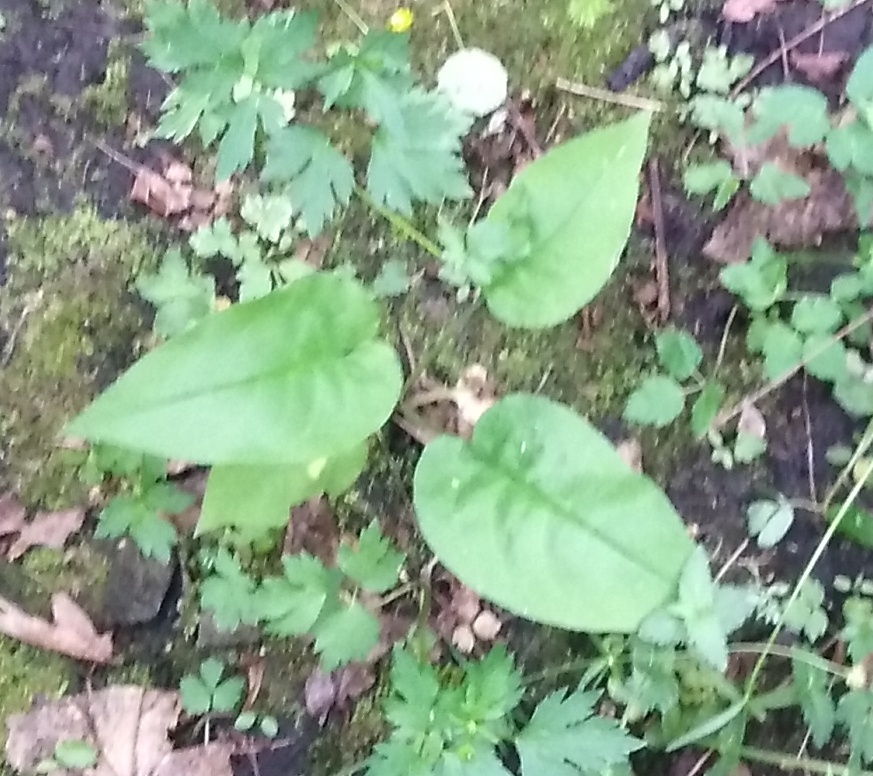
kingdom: Plantae
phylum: Tracheophyta
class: Magnoliopsida
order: Boraginales
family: Boraginaceae
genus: Pulmonaria
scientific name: Pulmonaria obscura
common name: Suffolk lungwort
